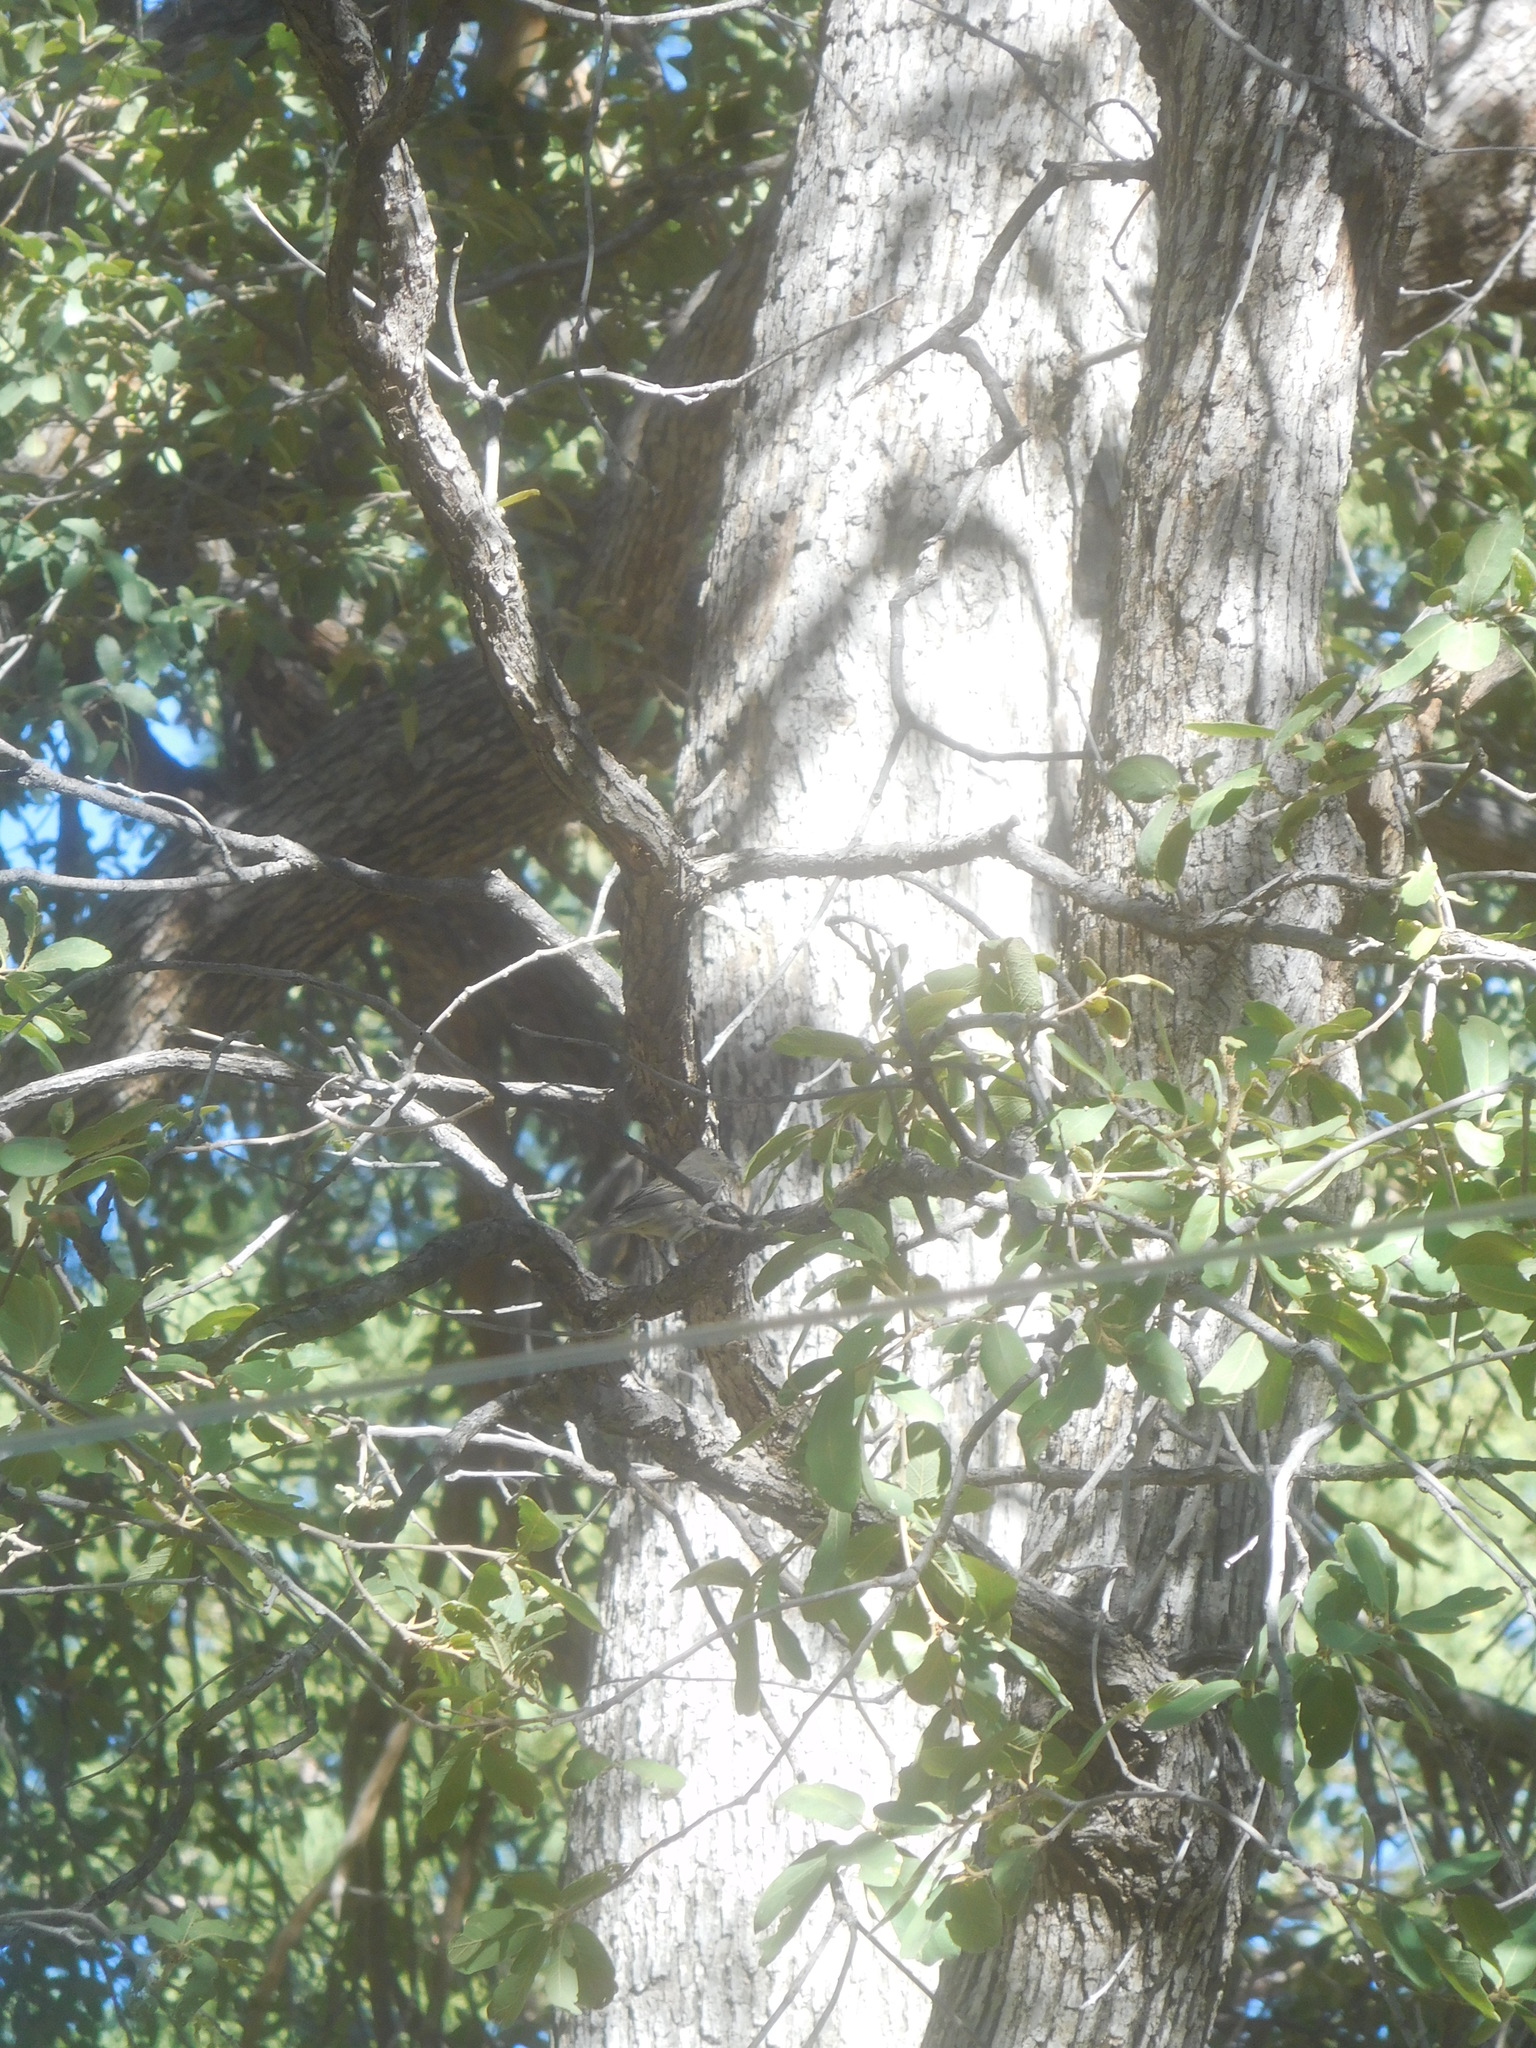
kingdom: Animalia
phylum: Chordata
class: Aves
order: Passeriformes
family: Fringillidae
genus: Haemorhous
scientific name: Haemorhous mexicanus
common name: House finch
